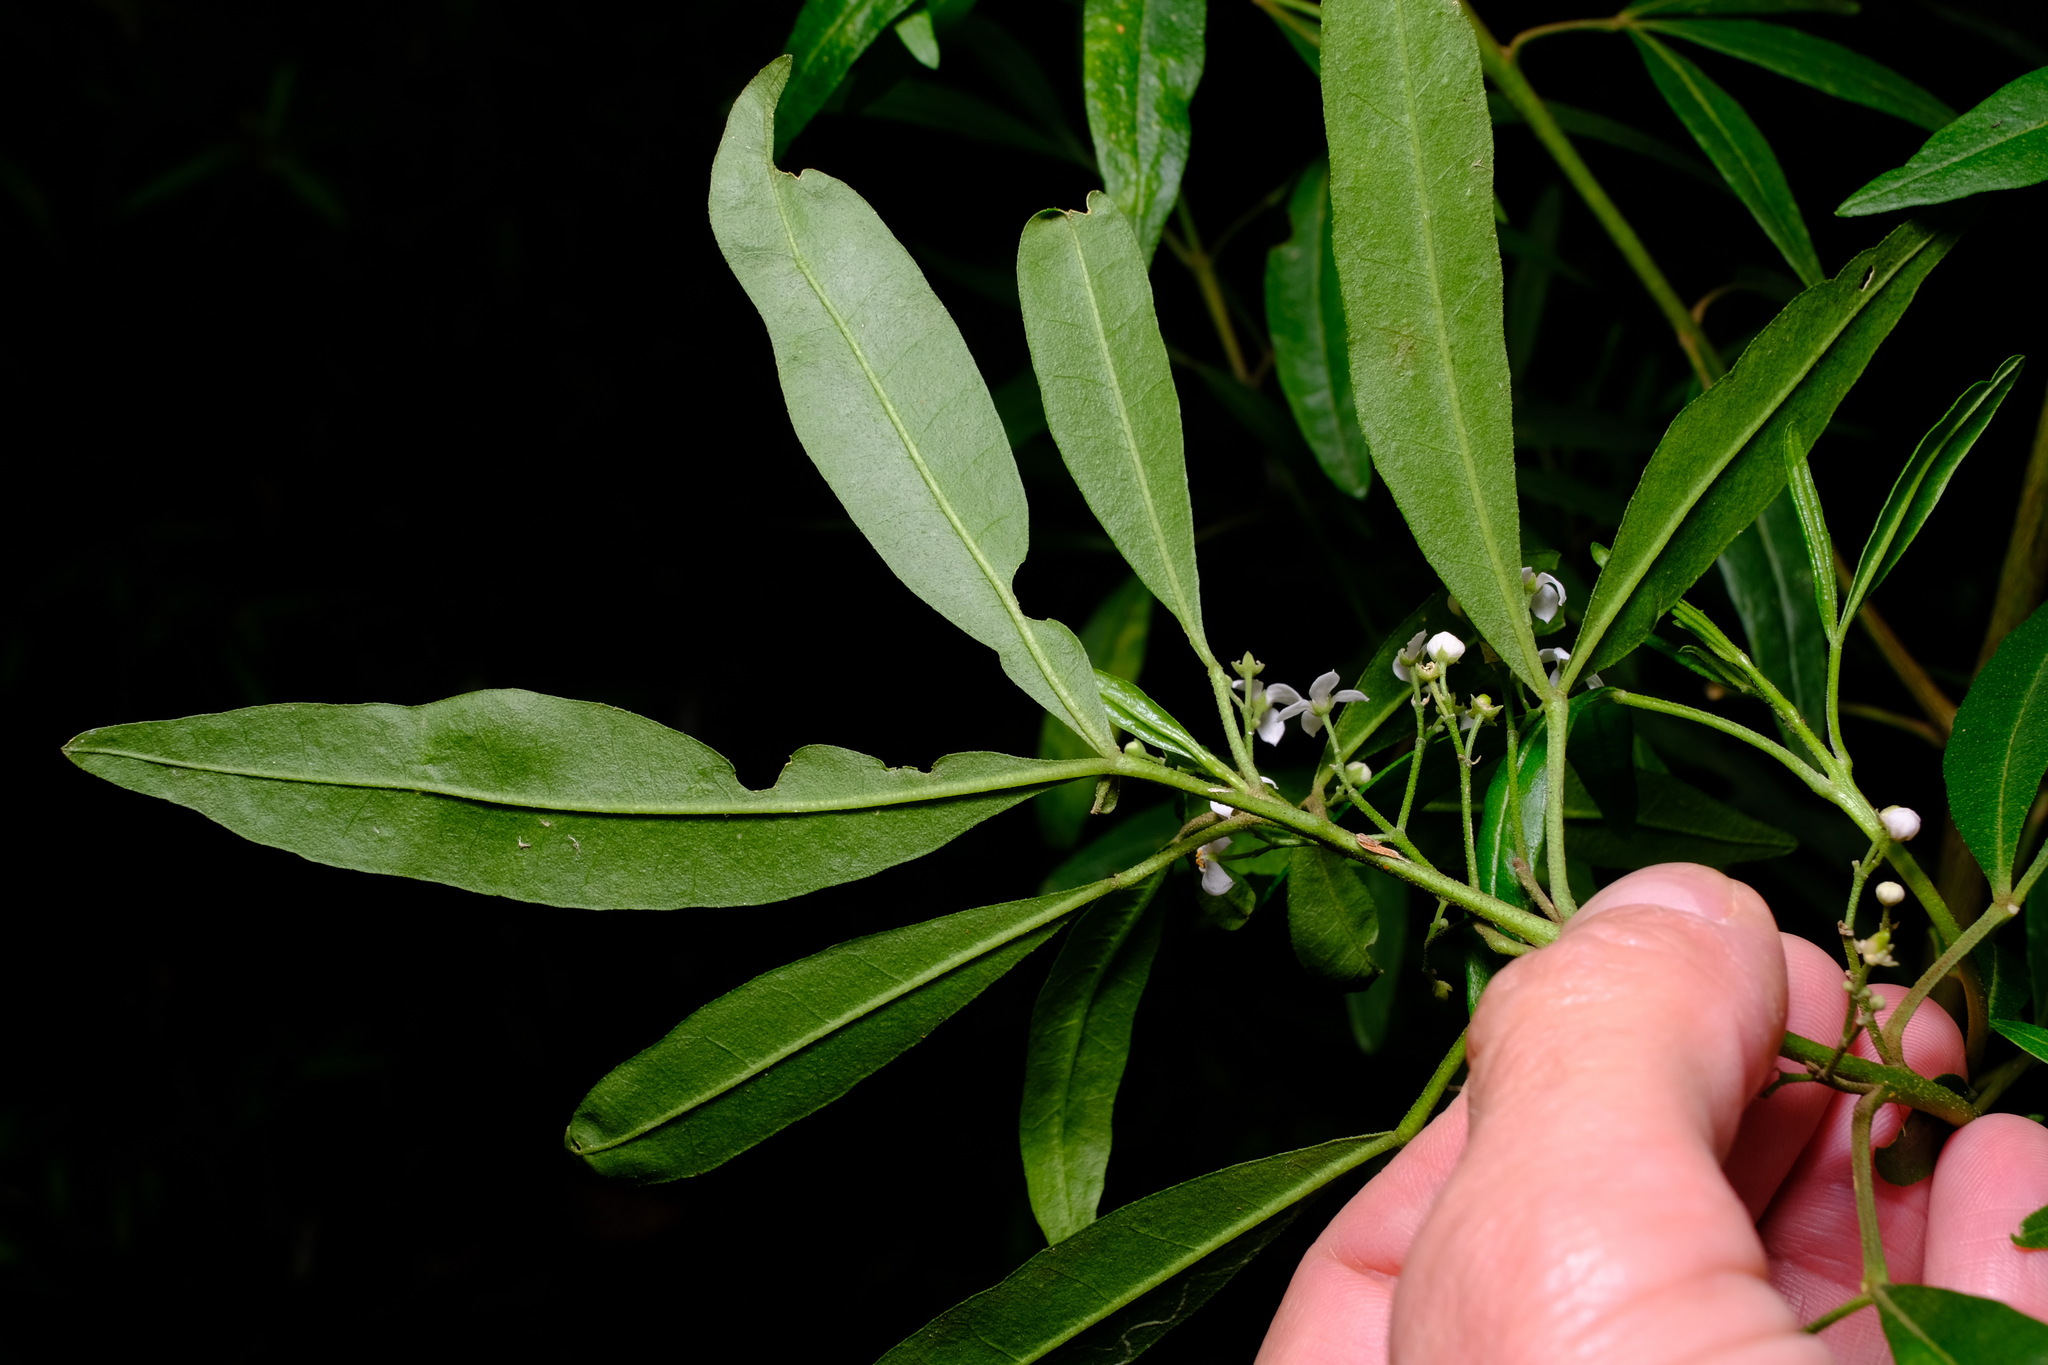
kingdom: Plantae
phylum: Tracheophyta
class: Magnoliopsida
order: Sapindales
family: Rutaceae
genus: Zieria
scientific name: Zieria arborescens
